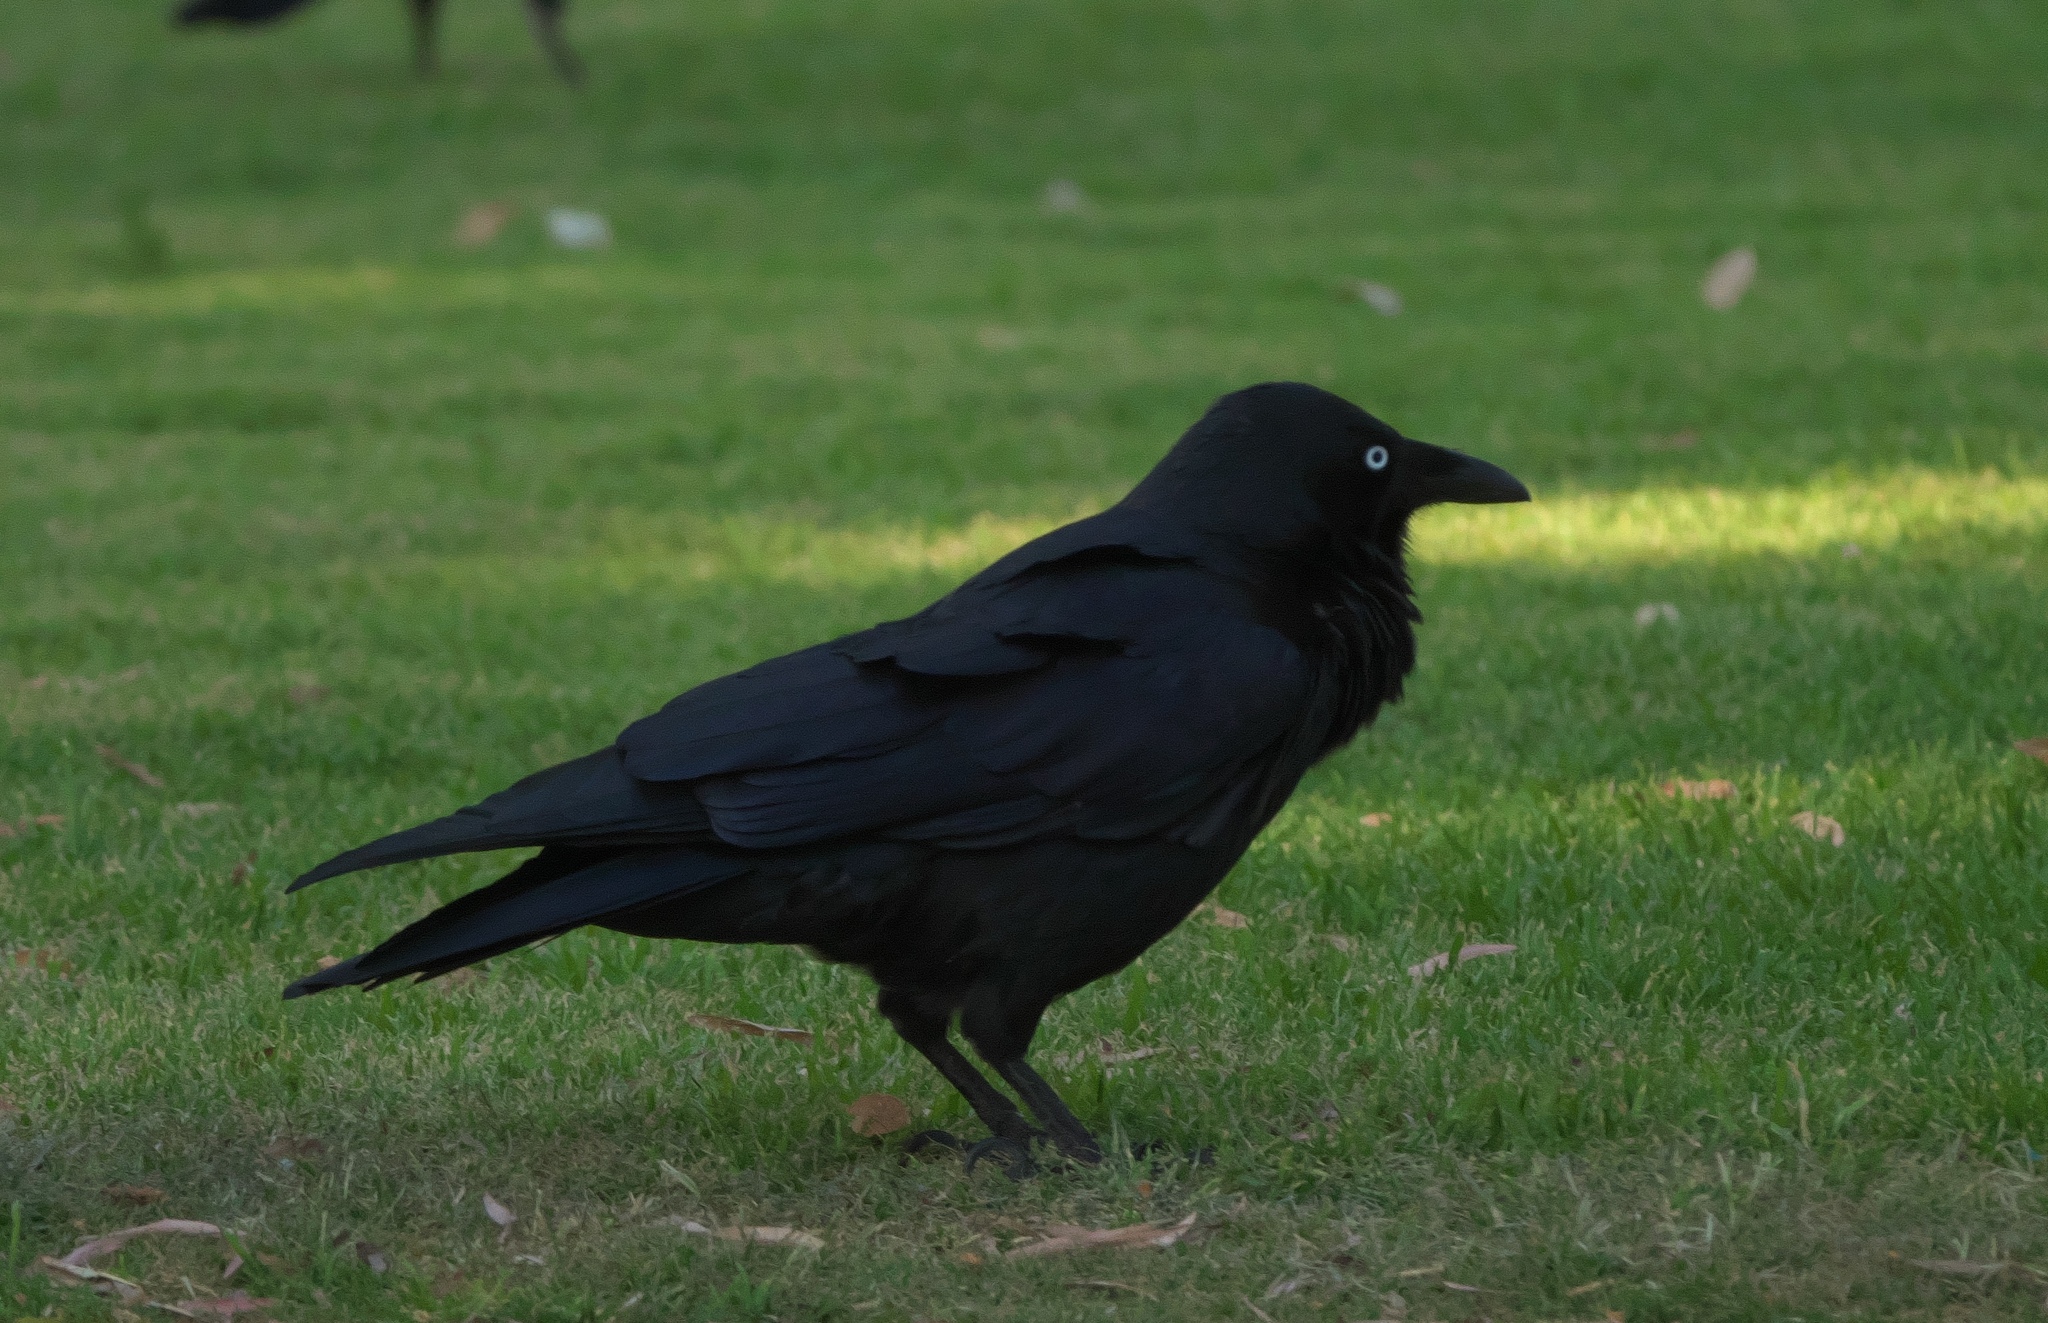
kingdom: Animalia
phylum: Chordata
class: Aves
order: Passeriformes
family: Corvidae
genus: Corvus
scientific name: Corvus coronoides
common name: Australian raven
